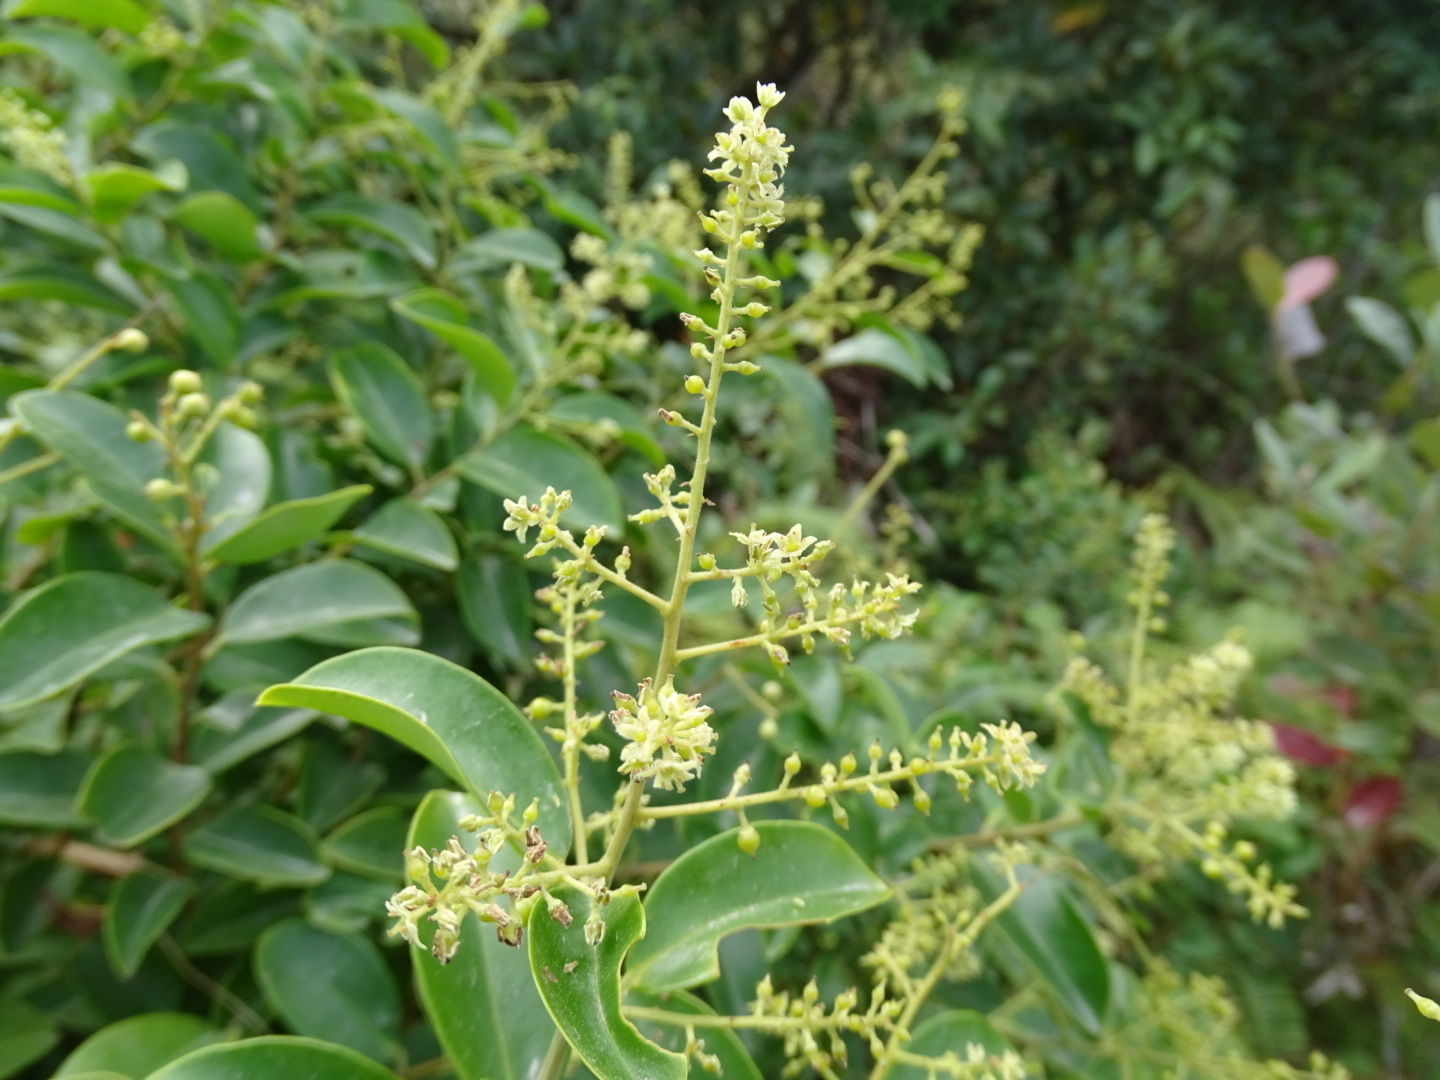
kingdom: Plantae
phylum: Tracheophyta
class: Magnoliopsida
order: Ericales
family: Primulaceae
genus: Embelia
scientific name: Embelia ribes
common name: Vidanga
